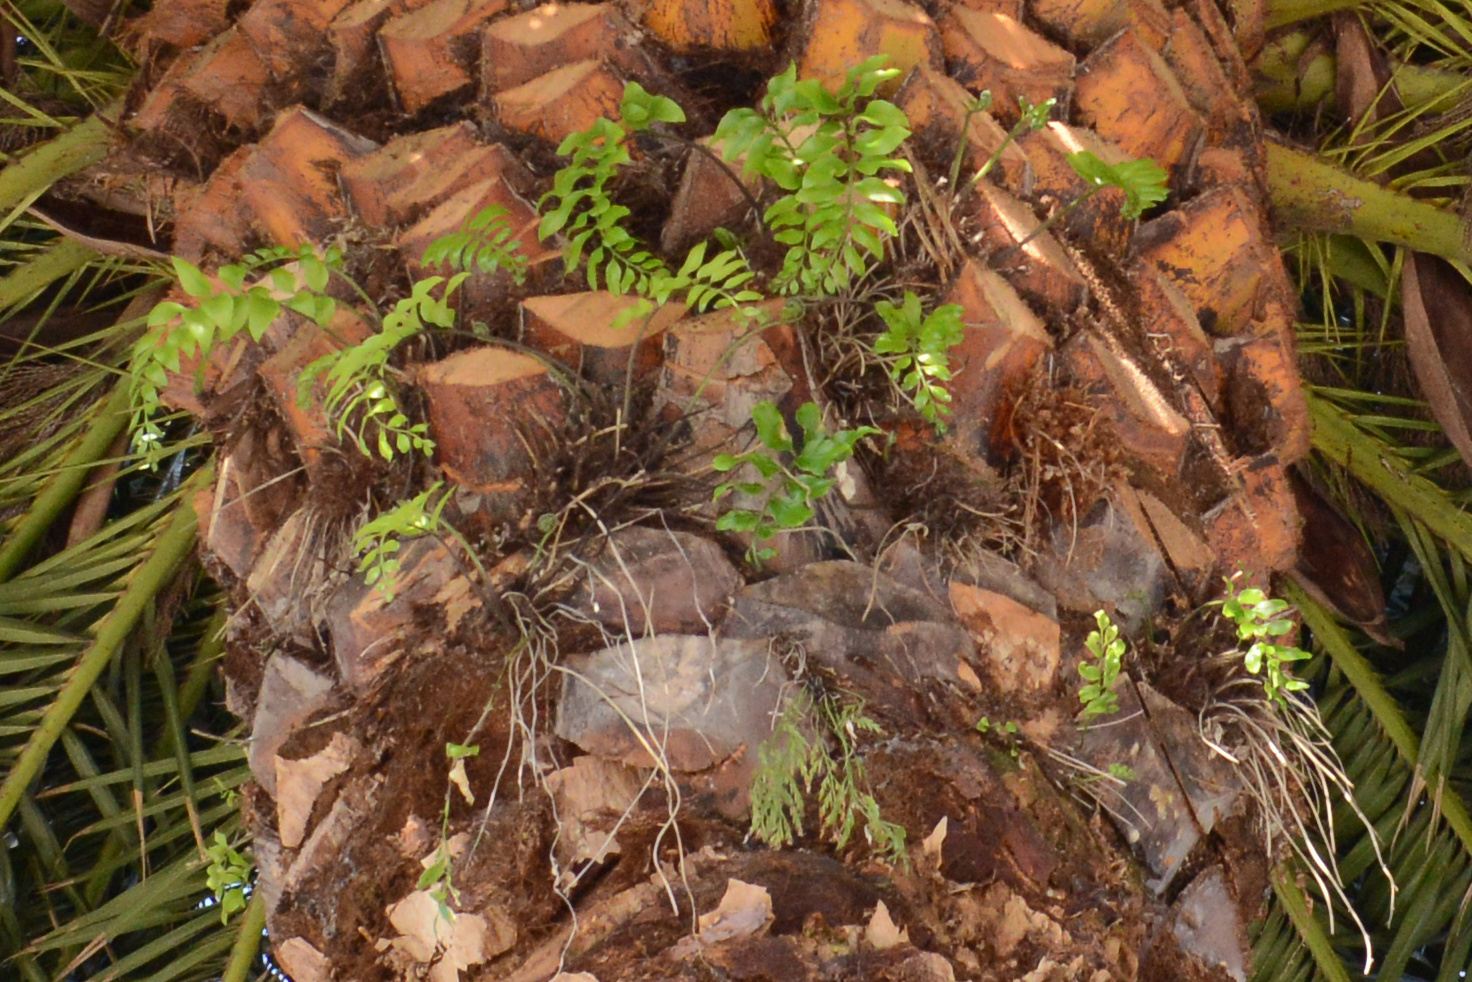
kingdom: Plantae
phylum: Tracheophyta
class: Polypodiopsida
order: Polypodiales
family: Aspleniaceae
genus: Asplenium
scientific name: Asplenium oblongifolium
